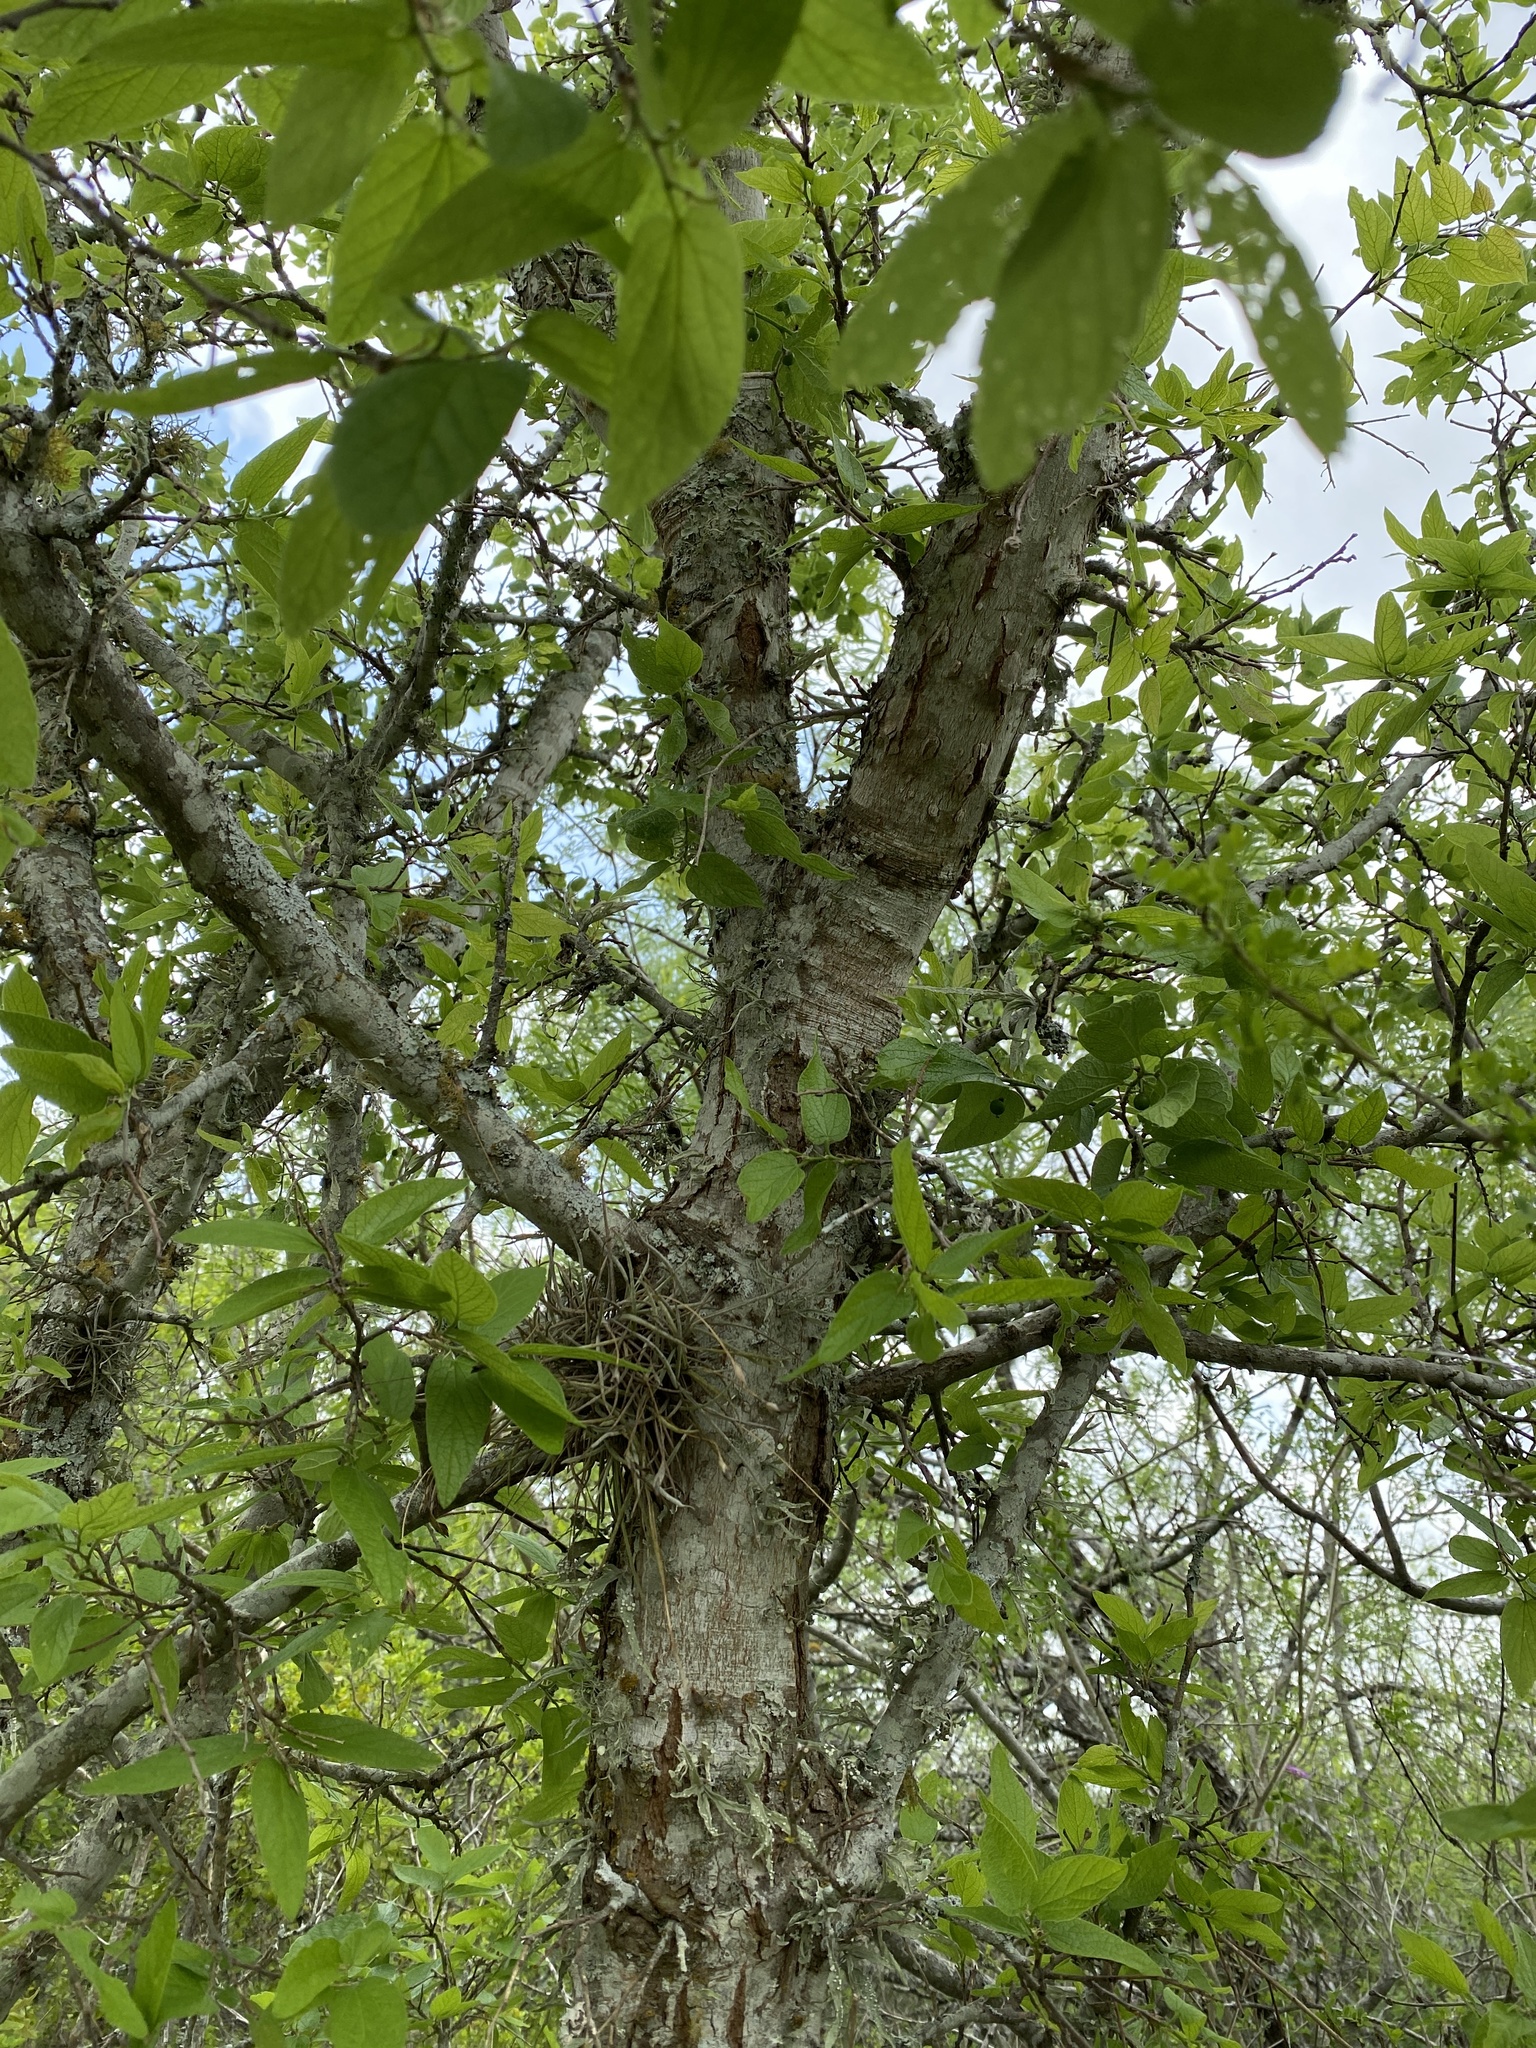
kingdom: Plantae
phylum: Tracheophyta
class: Magnoliopsida
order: Rosales
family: Cannabaceae
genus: Celtis
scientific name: Celtis reticulata
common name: Netleaf hackberry
